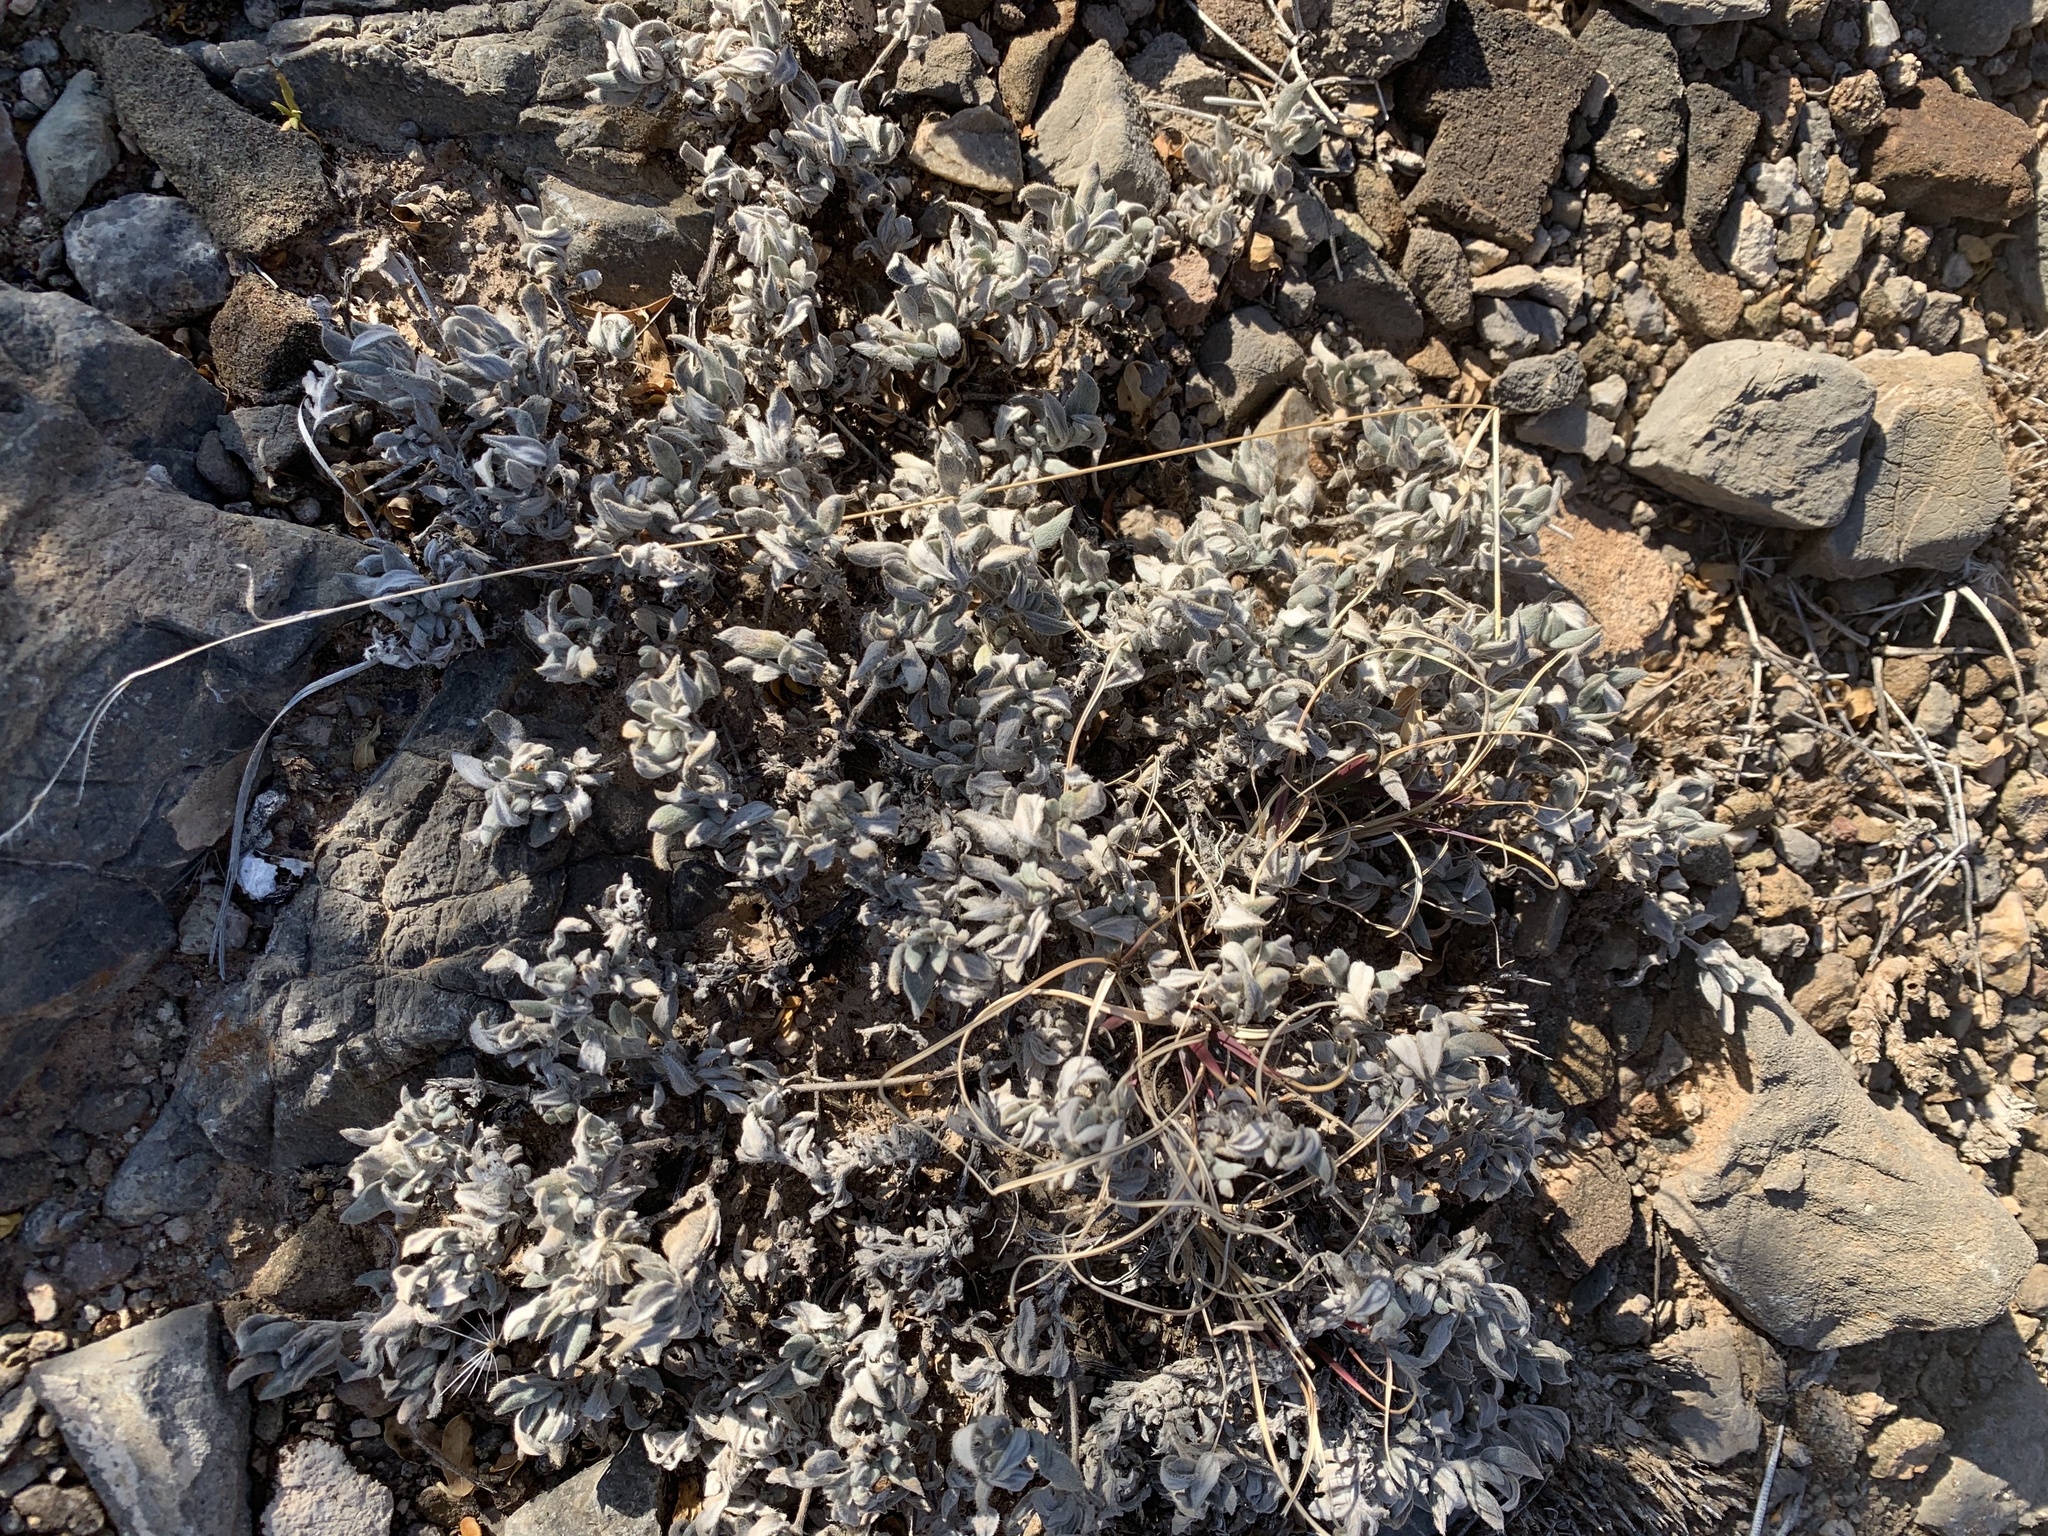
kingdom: Plantae
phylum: Tracheophyta
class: Magnoliopsida
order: Boraginales
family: Ehretiaceae
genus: Tiquilia
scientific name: Tiquilia canescens
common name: Hairy tiquilia
